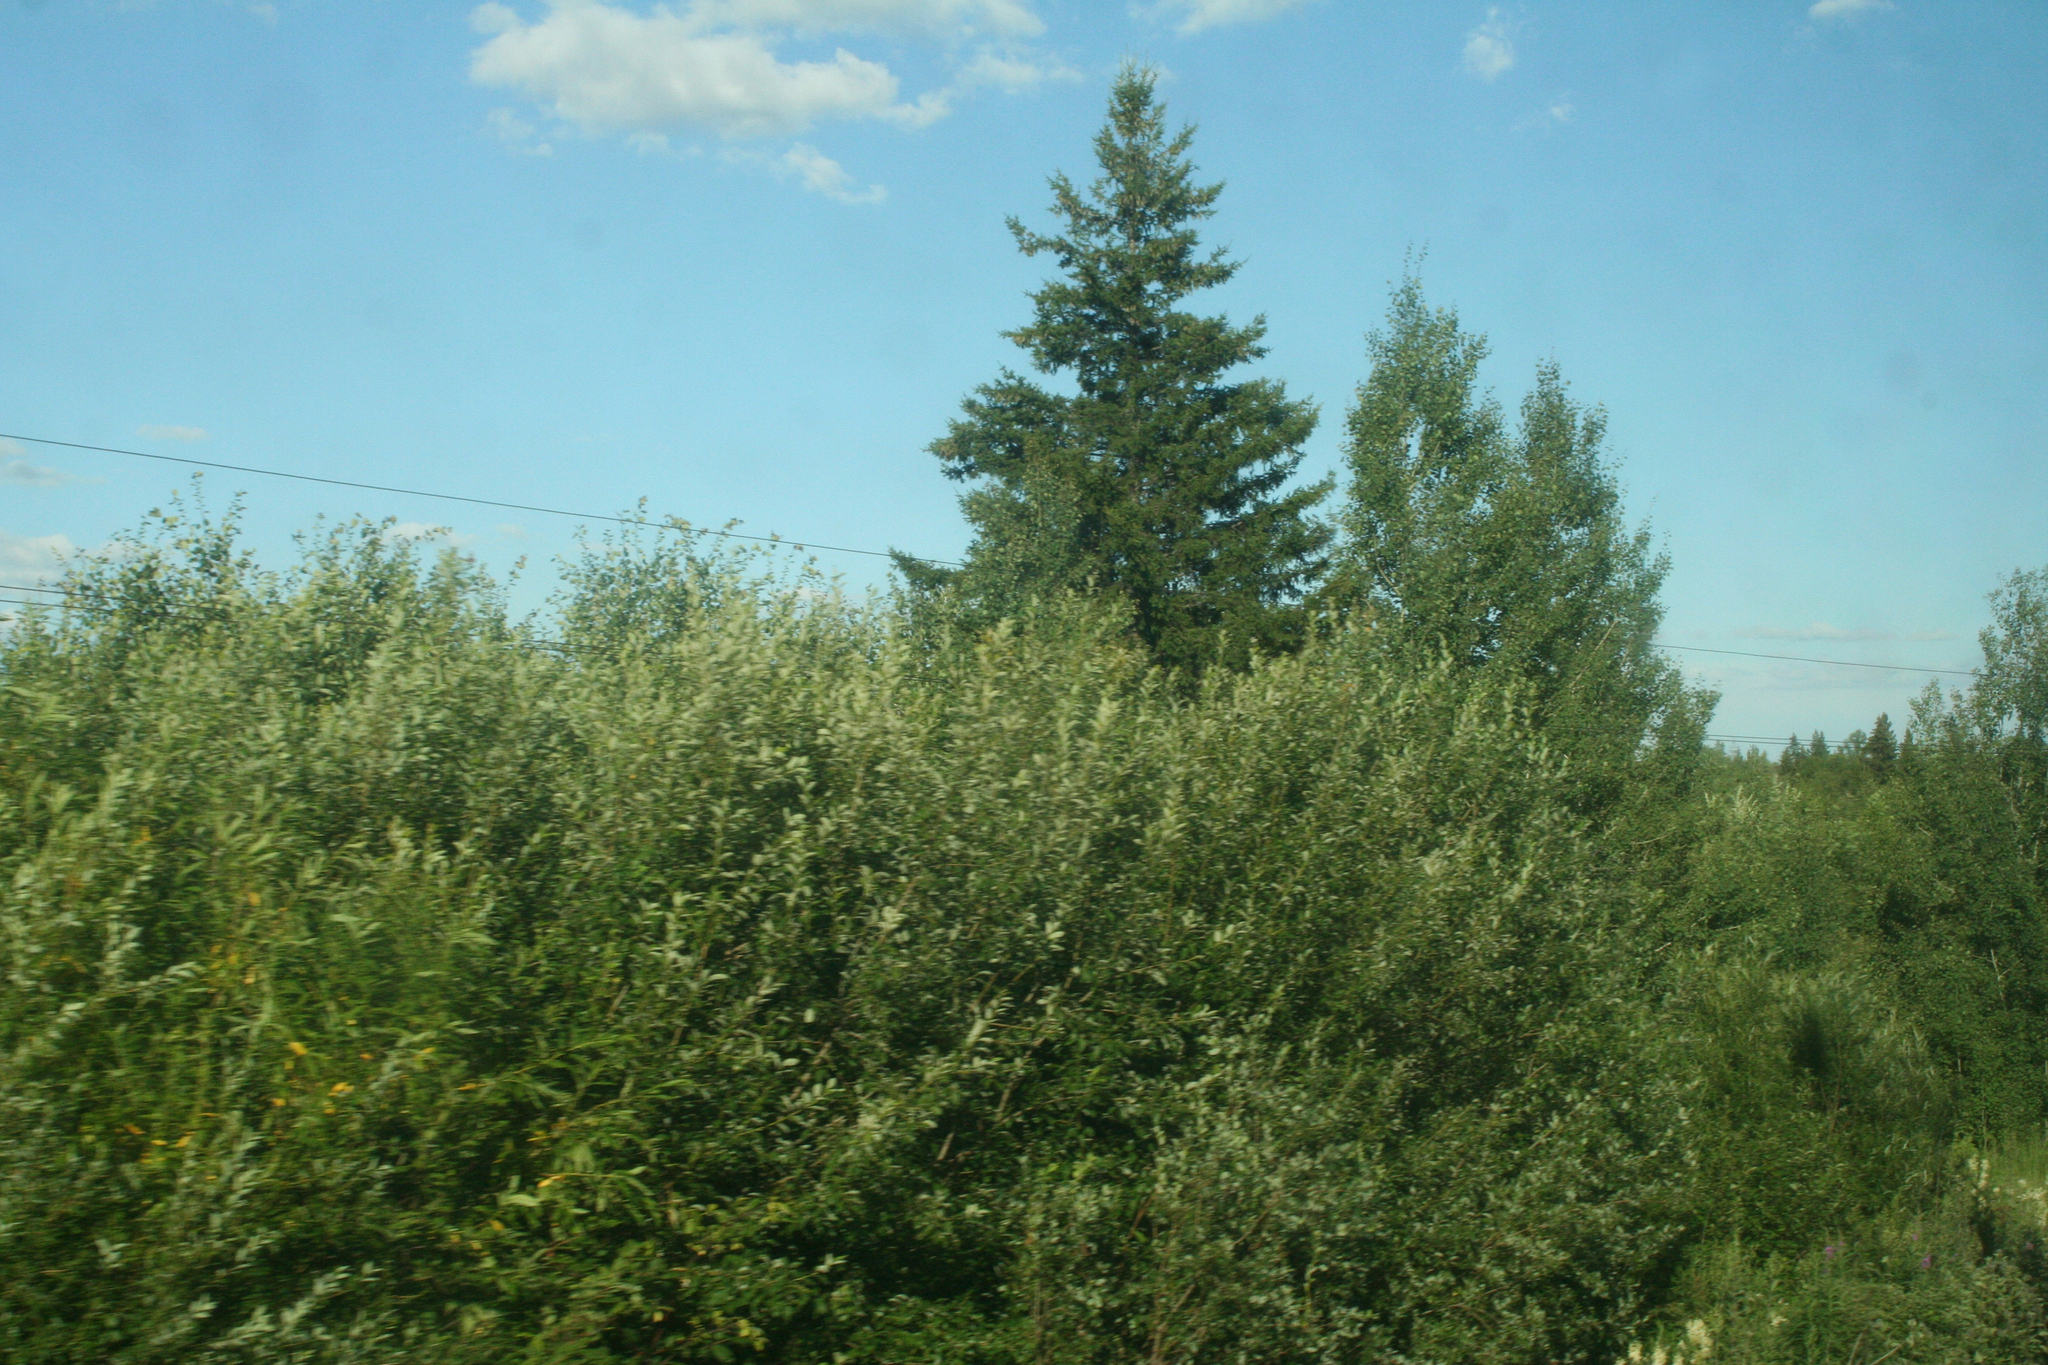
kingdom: Plantae
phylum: Tracheophyta
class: Pinopsida
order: Pinales
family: Pinaceae
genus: Picea
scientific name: Picea obovata
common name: Siberian spruce
